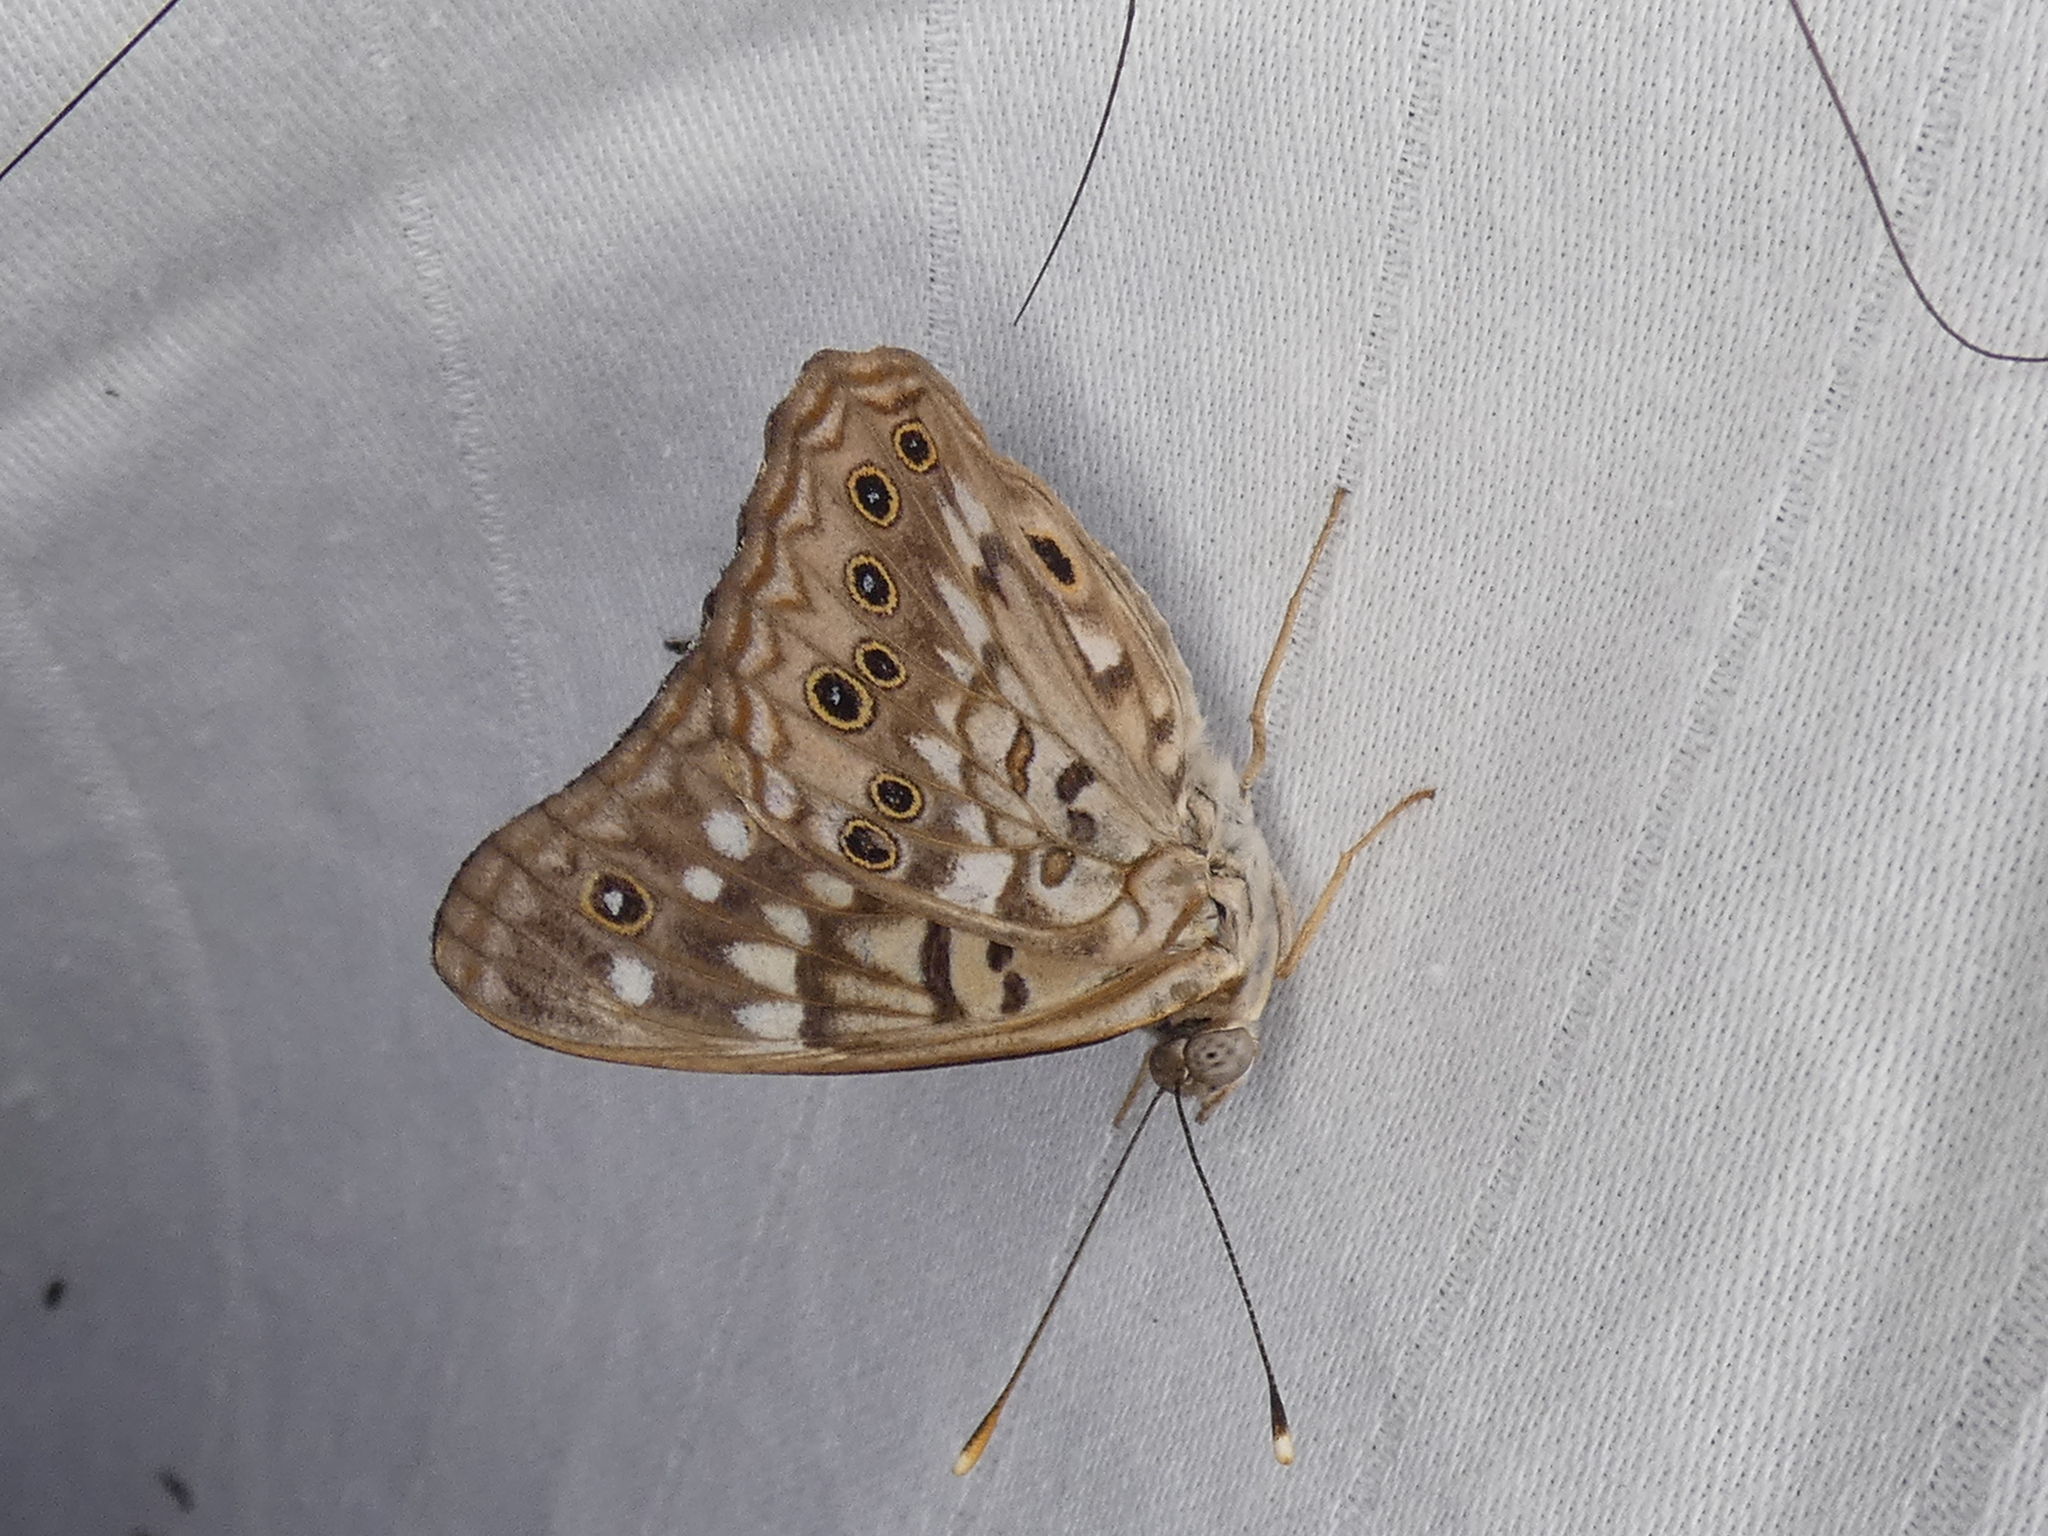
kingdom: Animalia
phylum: Arthropoda
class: Insecta
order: Lepidoptera
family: Nymphalidae
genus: Asterocampa
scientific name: Asterocampa celtis
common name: Hackberry emperor
